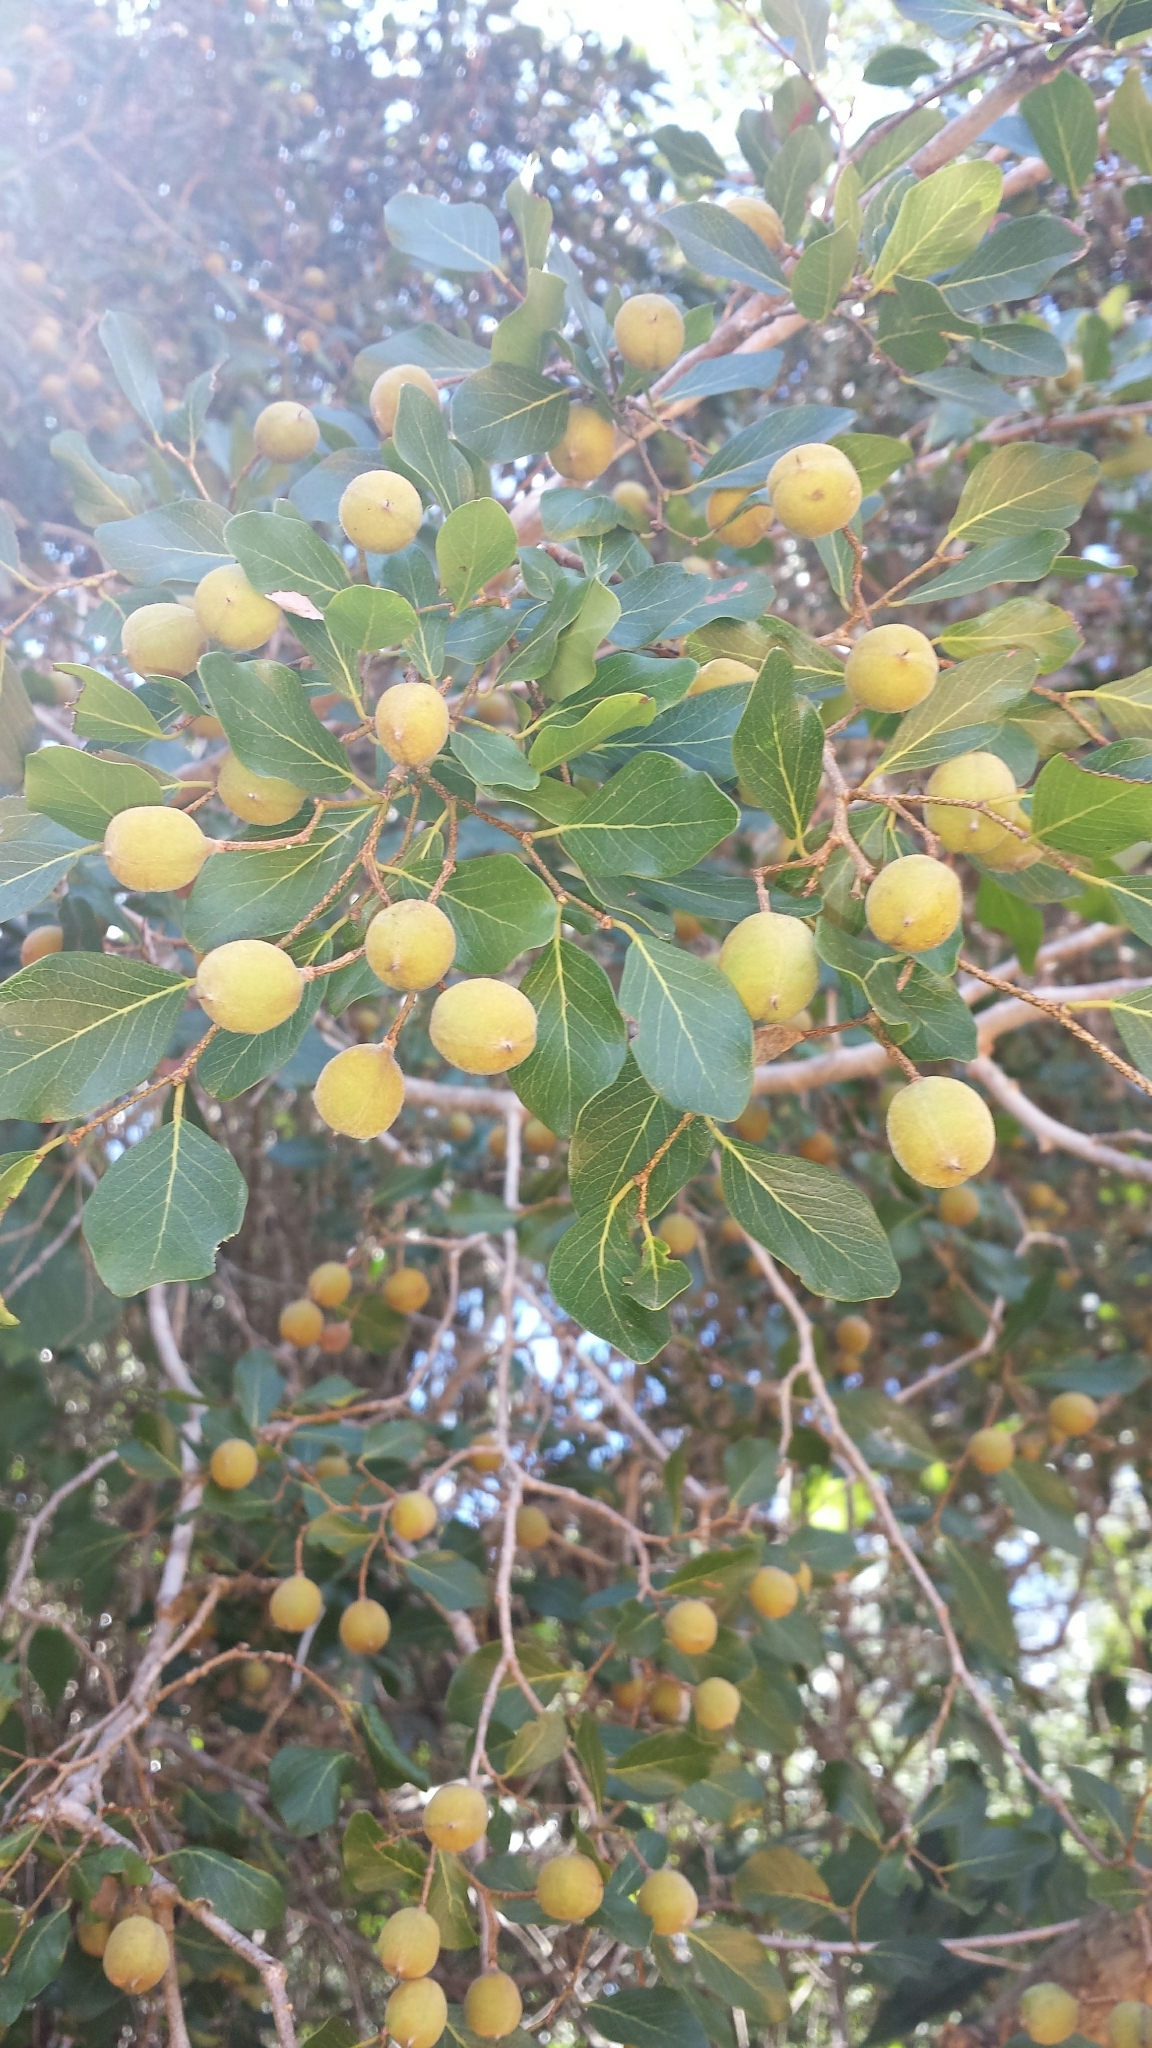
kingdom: Plantae
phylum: Tracheophyta
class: Magnoliopsida
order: Fabales
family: Fabaceae
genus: Baudouinia
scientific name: Baudouinia fluggeiformis
